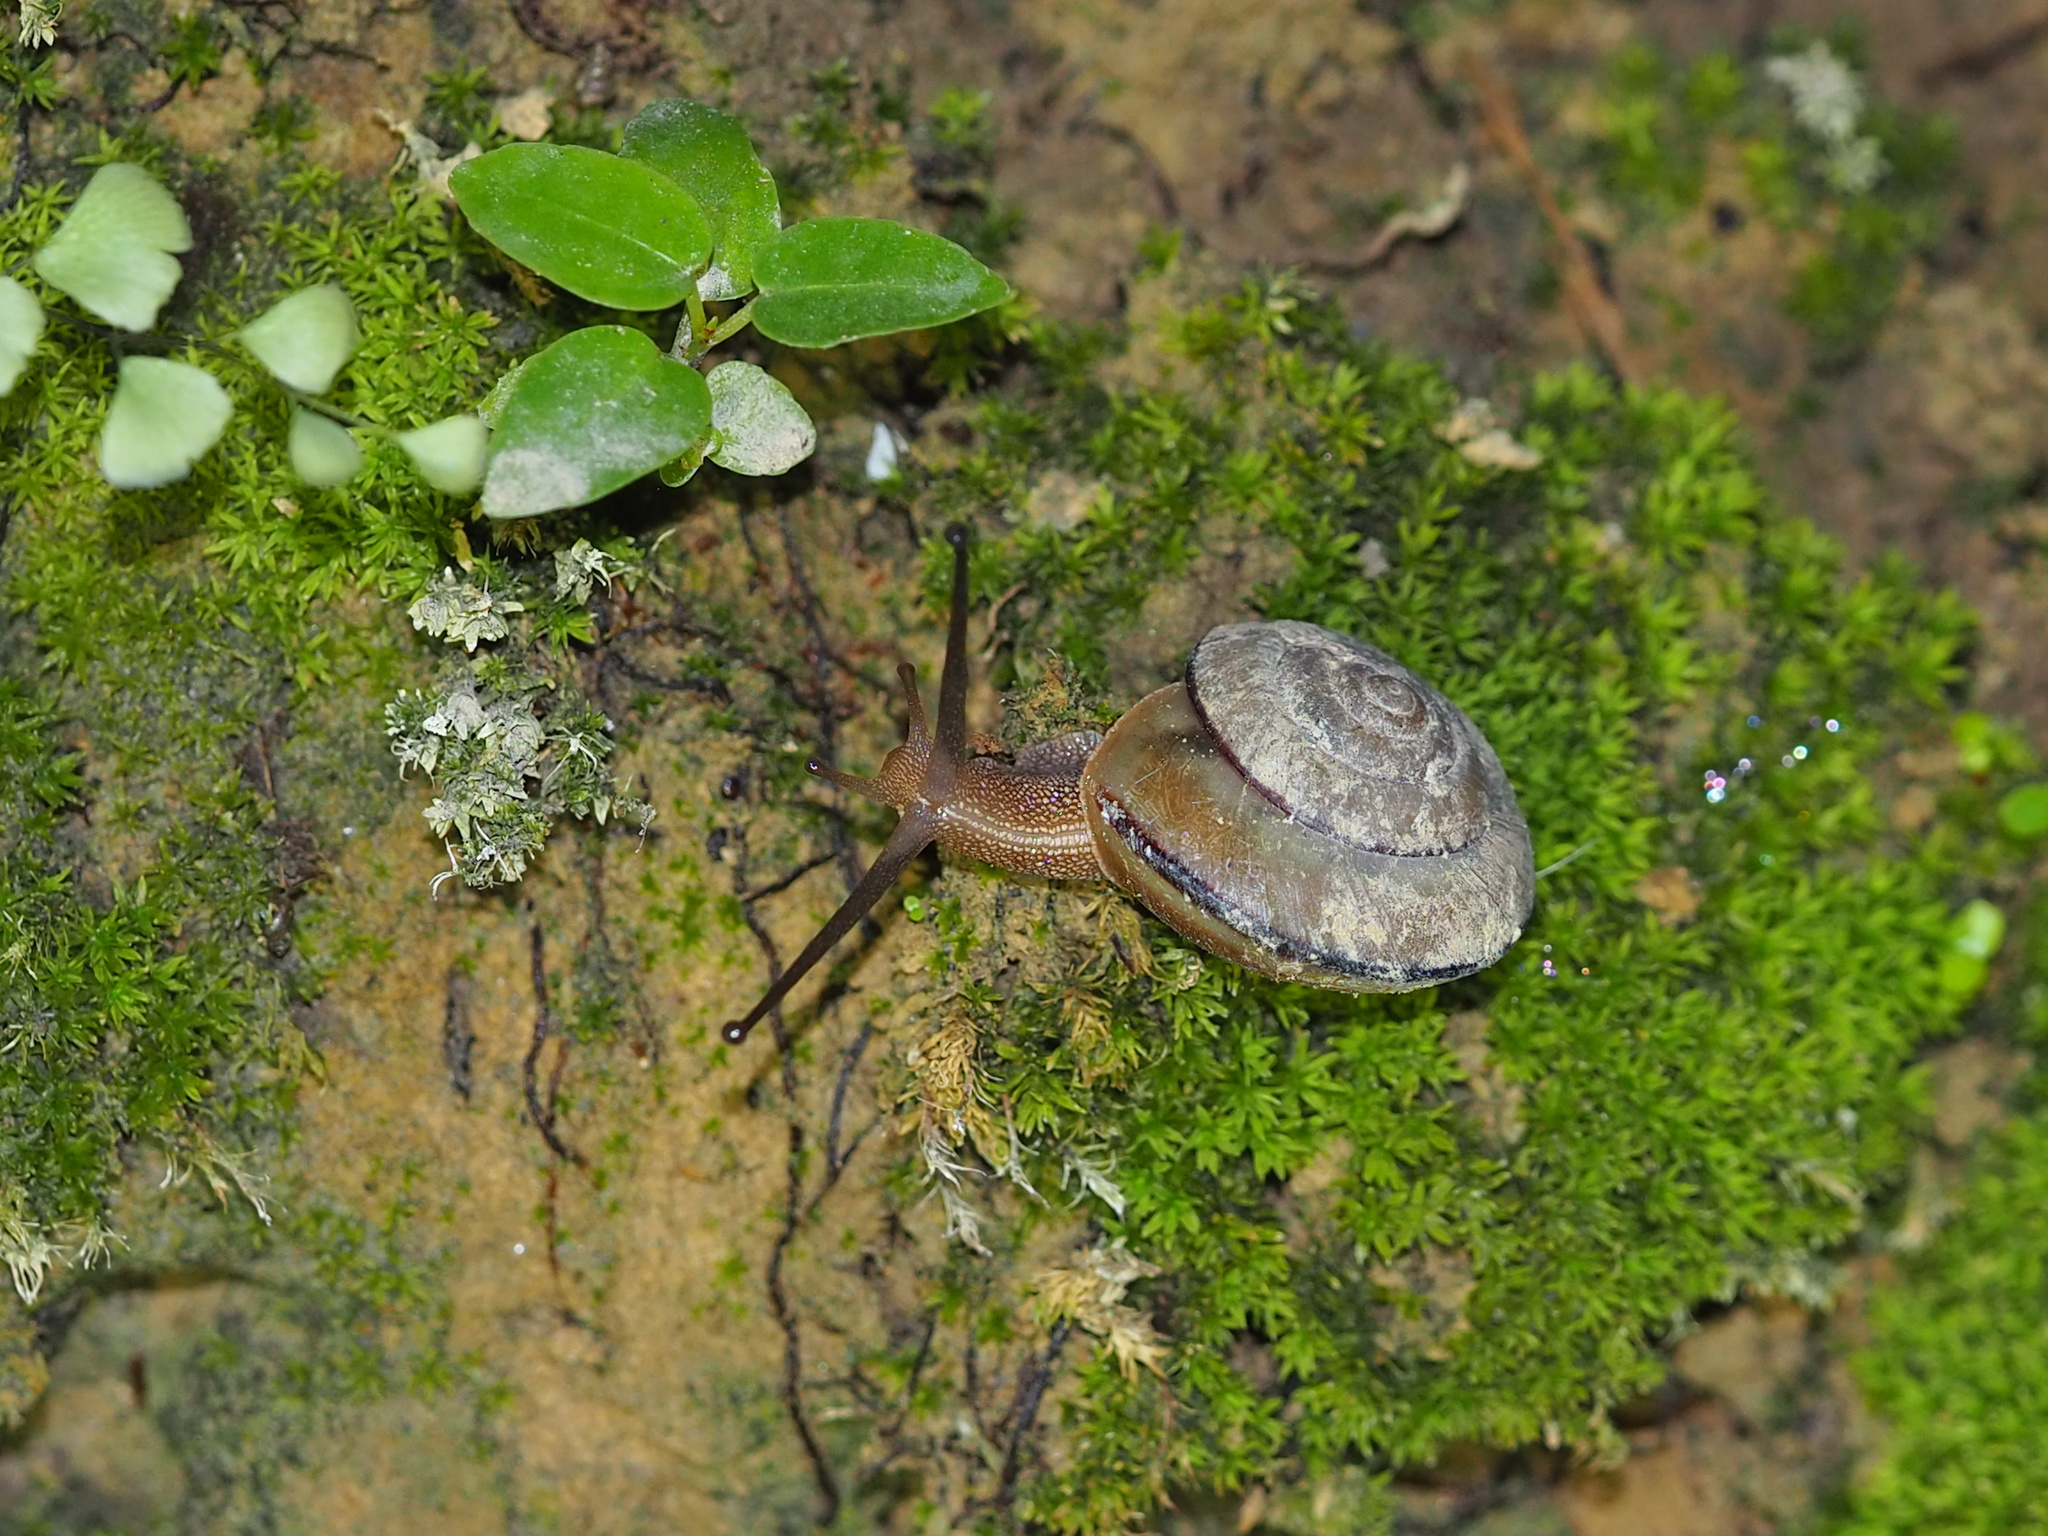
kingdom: Animalia
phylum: Mollusca
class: Gastropoda
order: Stylommatophora
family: Camaenidae
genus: Satsuma
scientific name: Satsuma succincta
